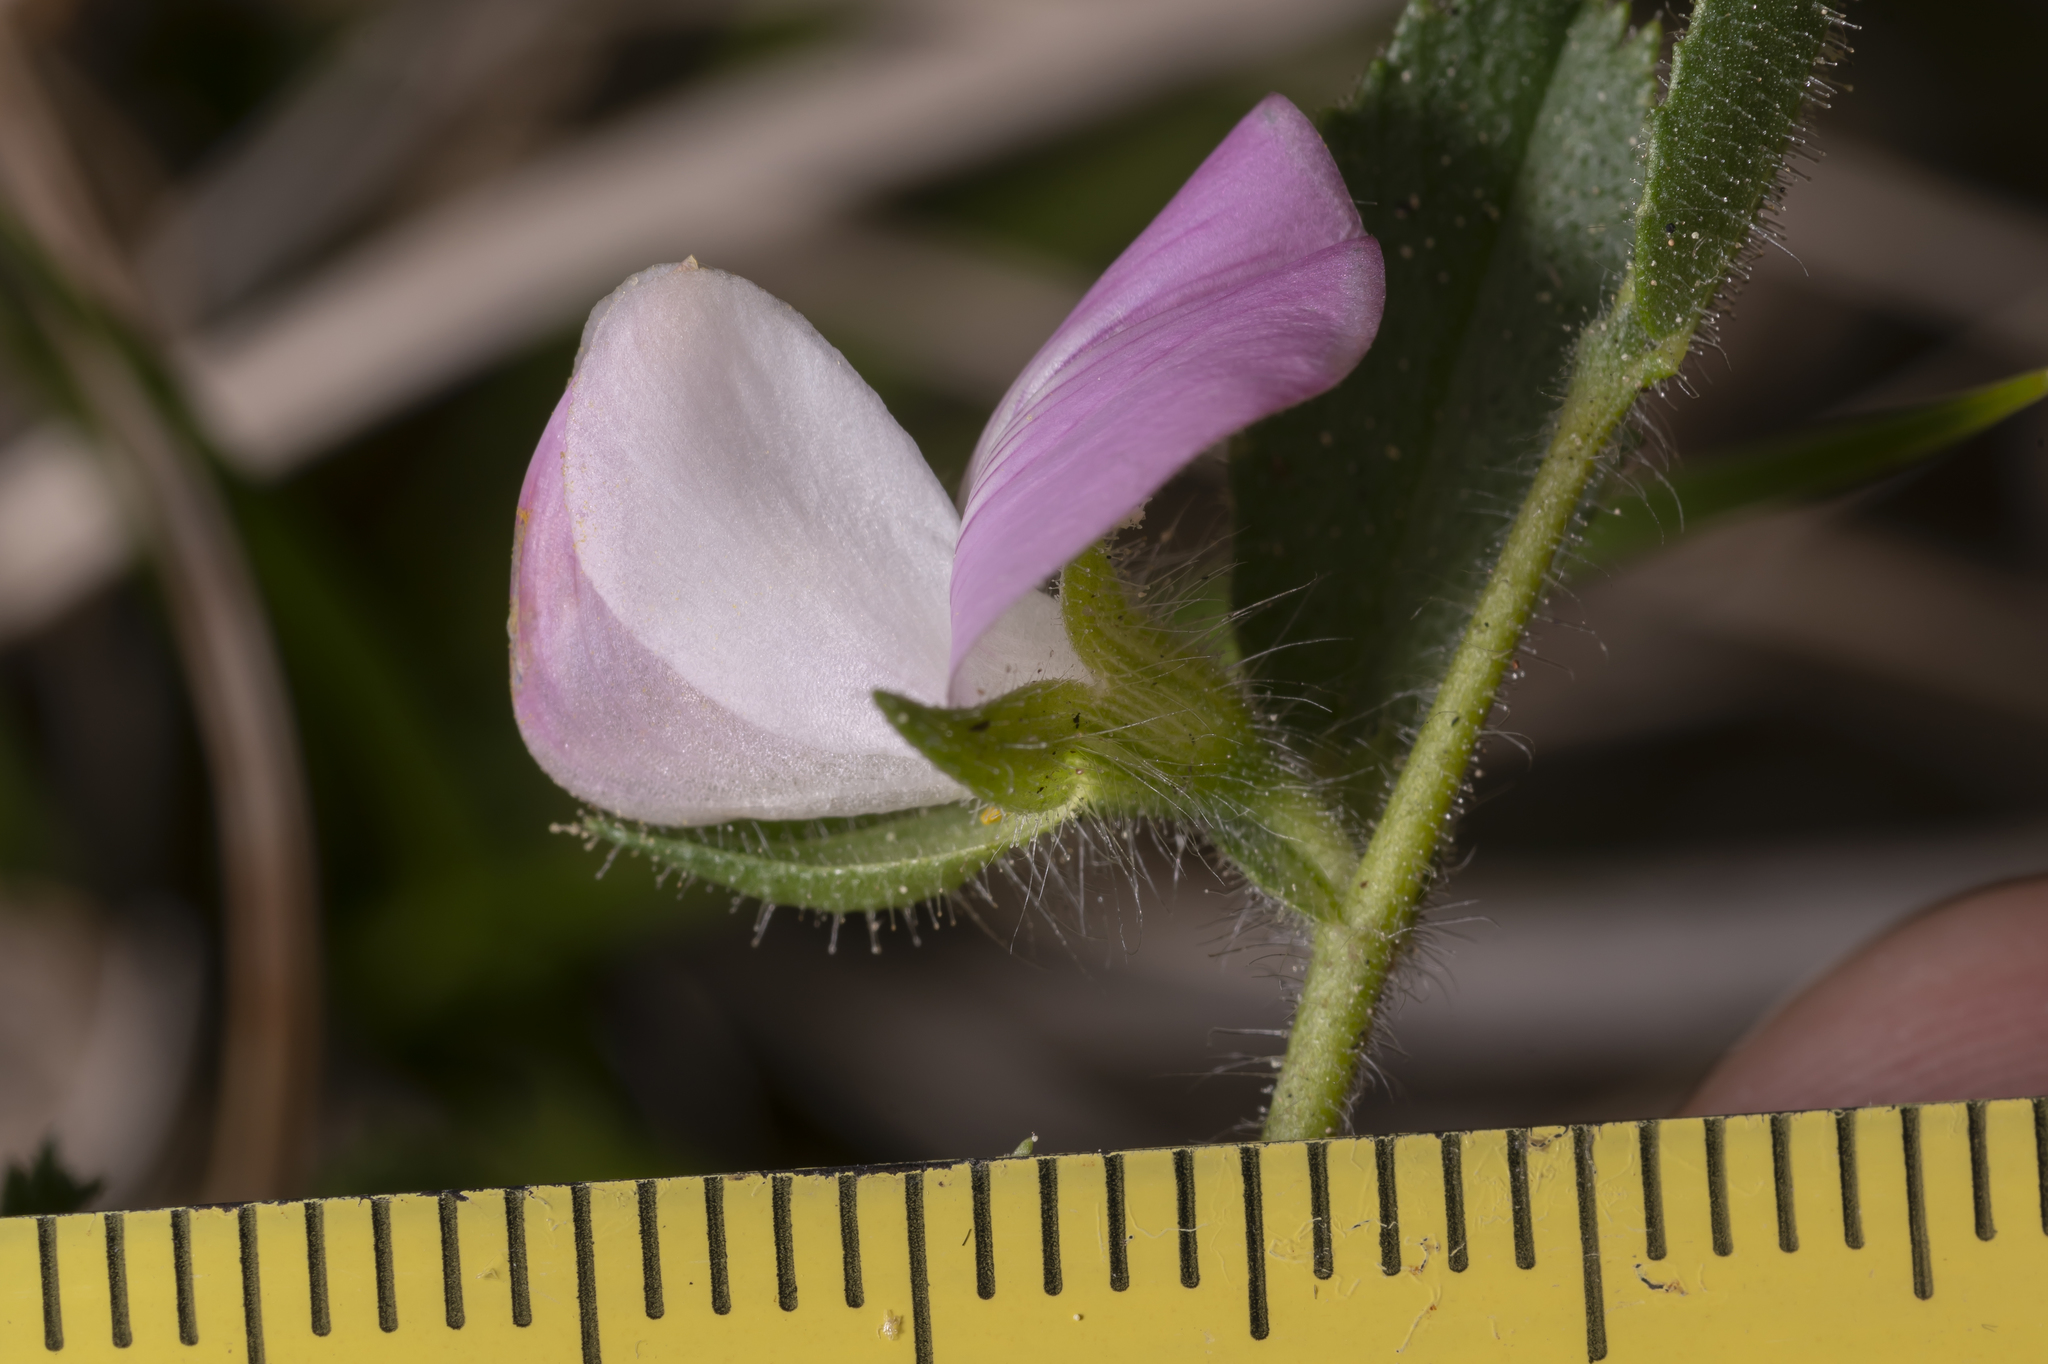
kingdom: Plantae
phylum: Tracheophyta
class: Magnoliopsida
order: Fabales
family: Fabaceae
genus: Ononis
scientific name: Ononis spinosa
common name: Spiny restharrow
